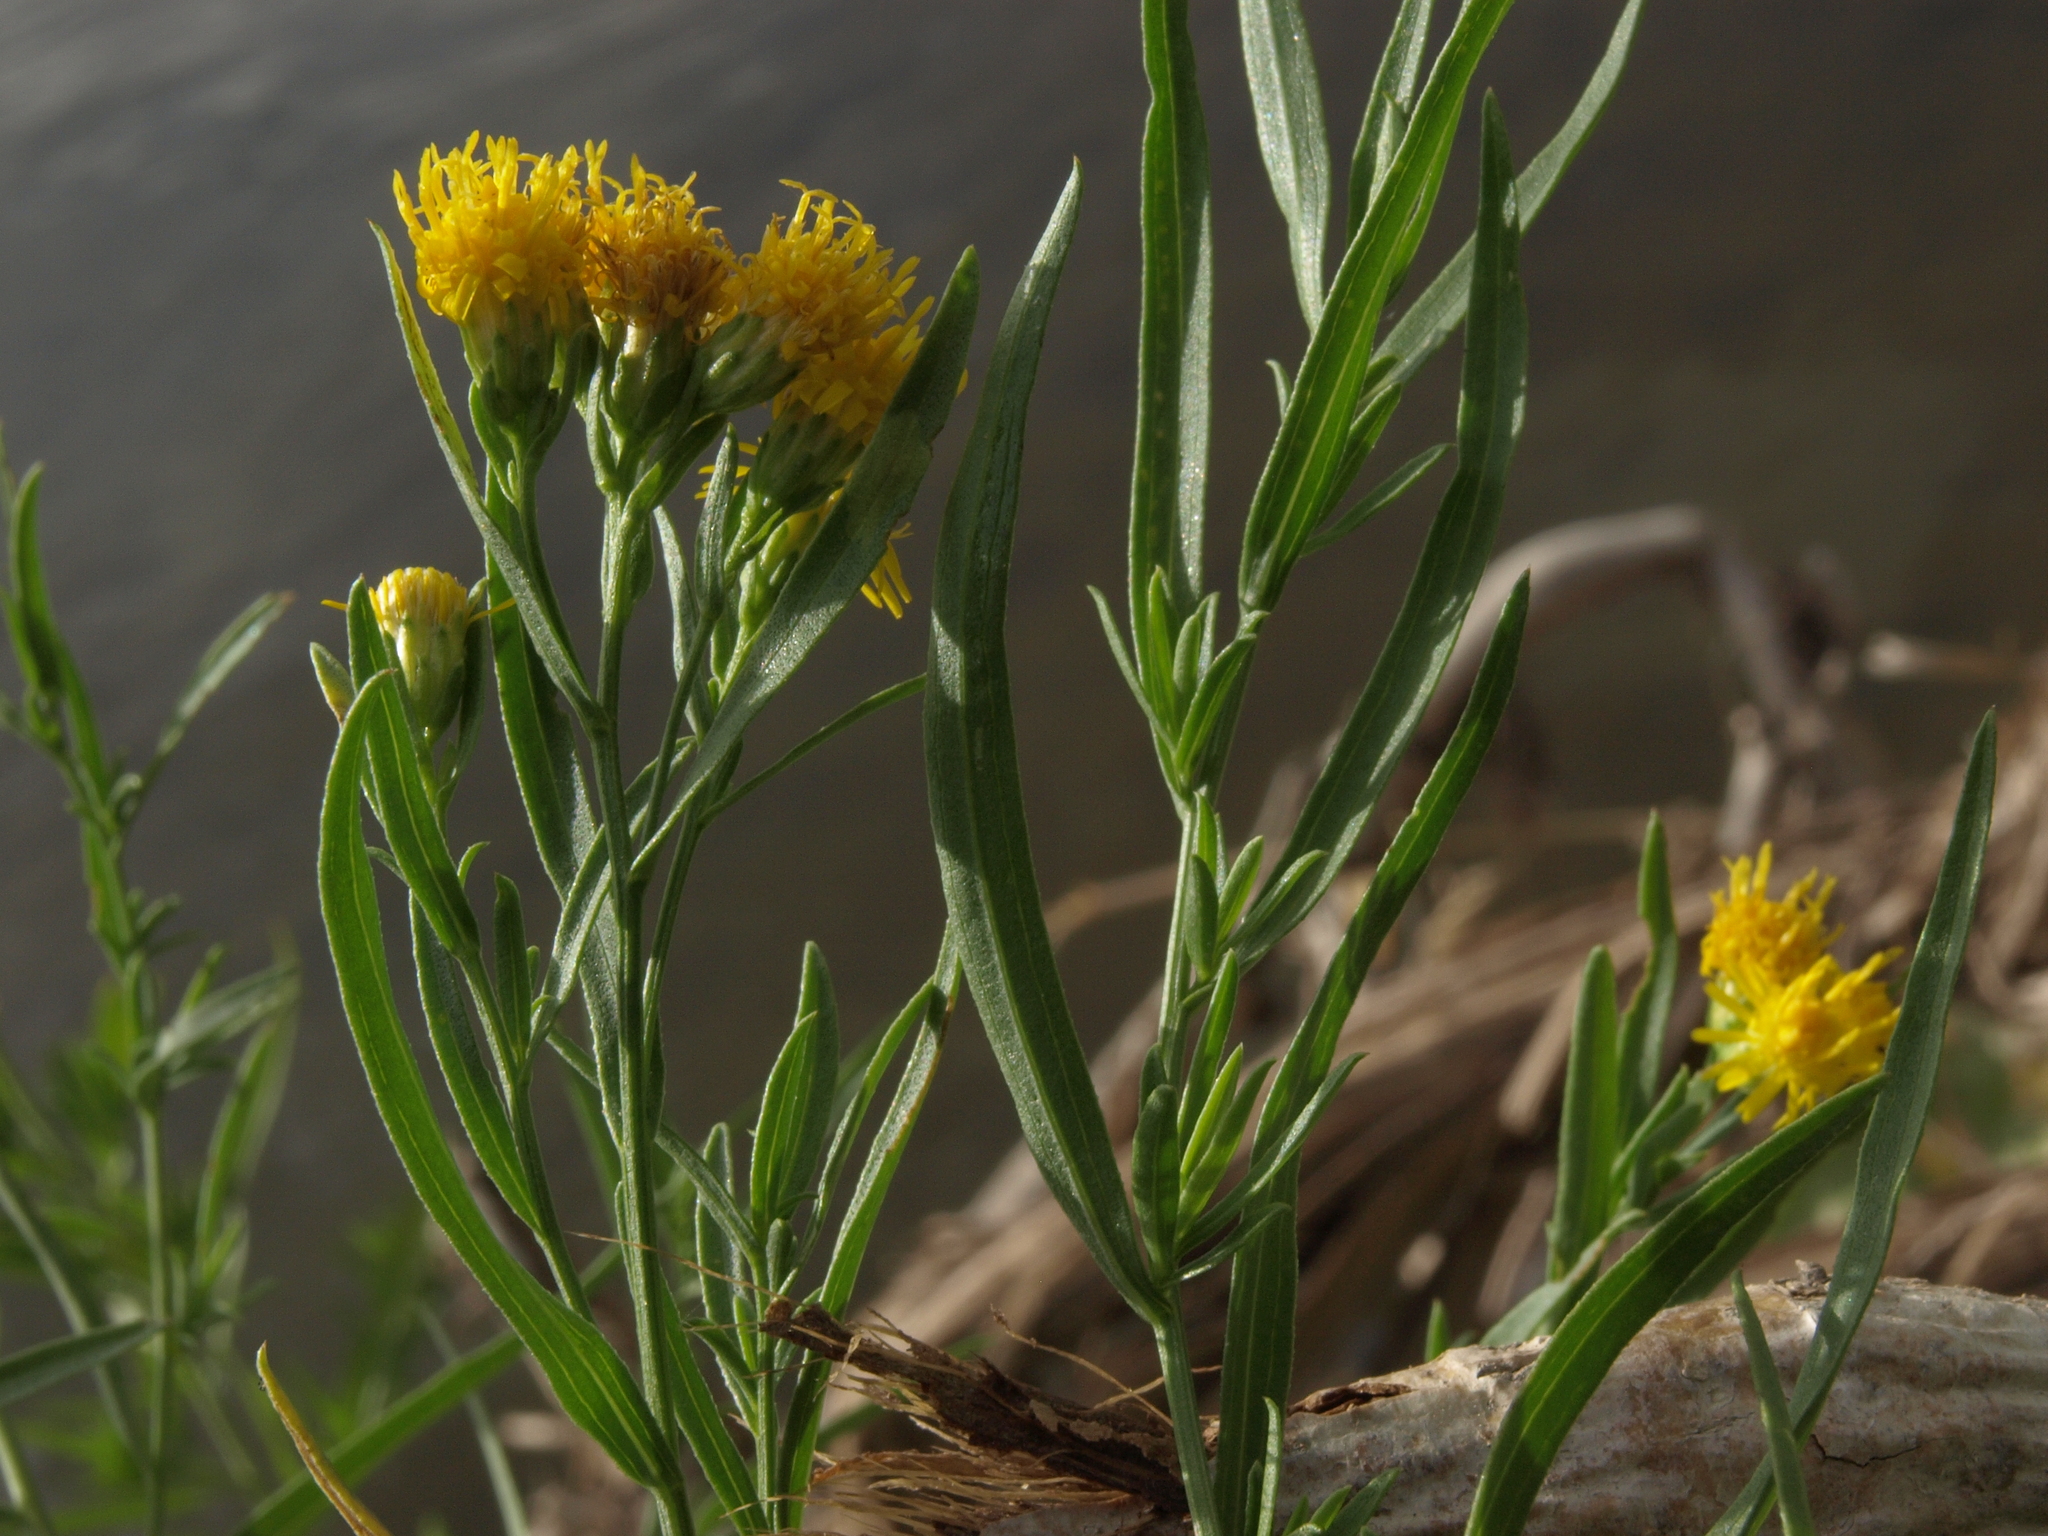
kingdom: Plantae
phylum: Tracheophyta
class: Magnoliopsida
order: Asterales
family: Asteraceae
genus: Euthamia
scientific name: Euthamia occidentalis
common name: Western goldentop
